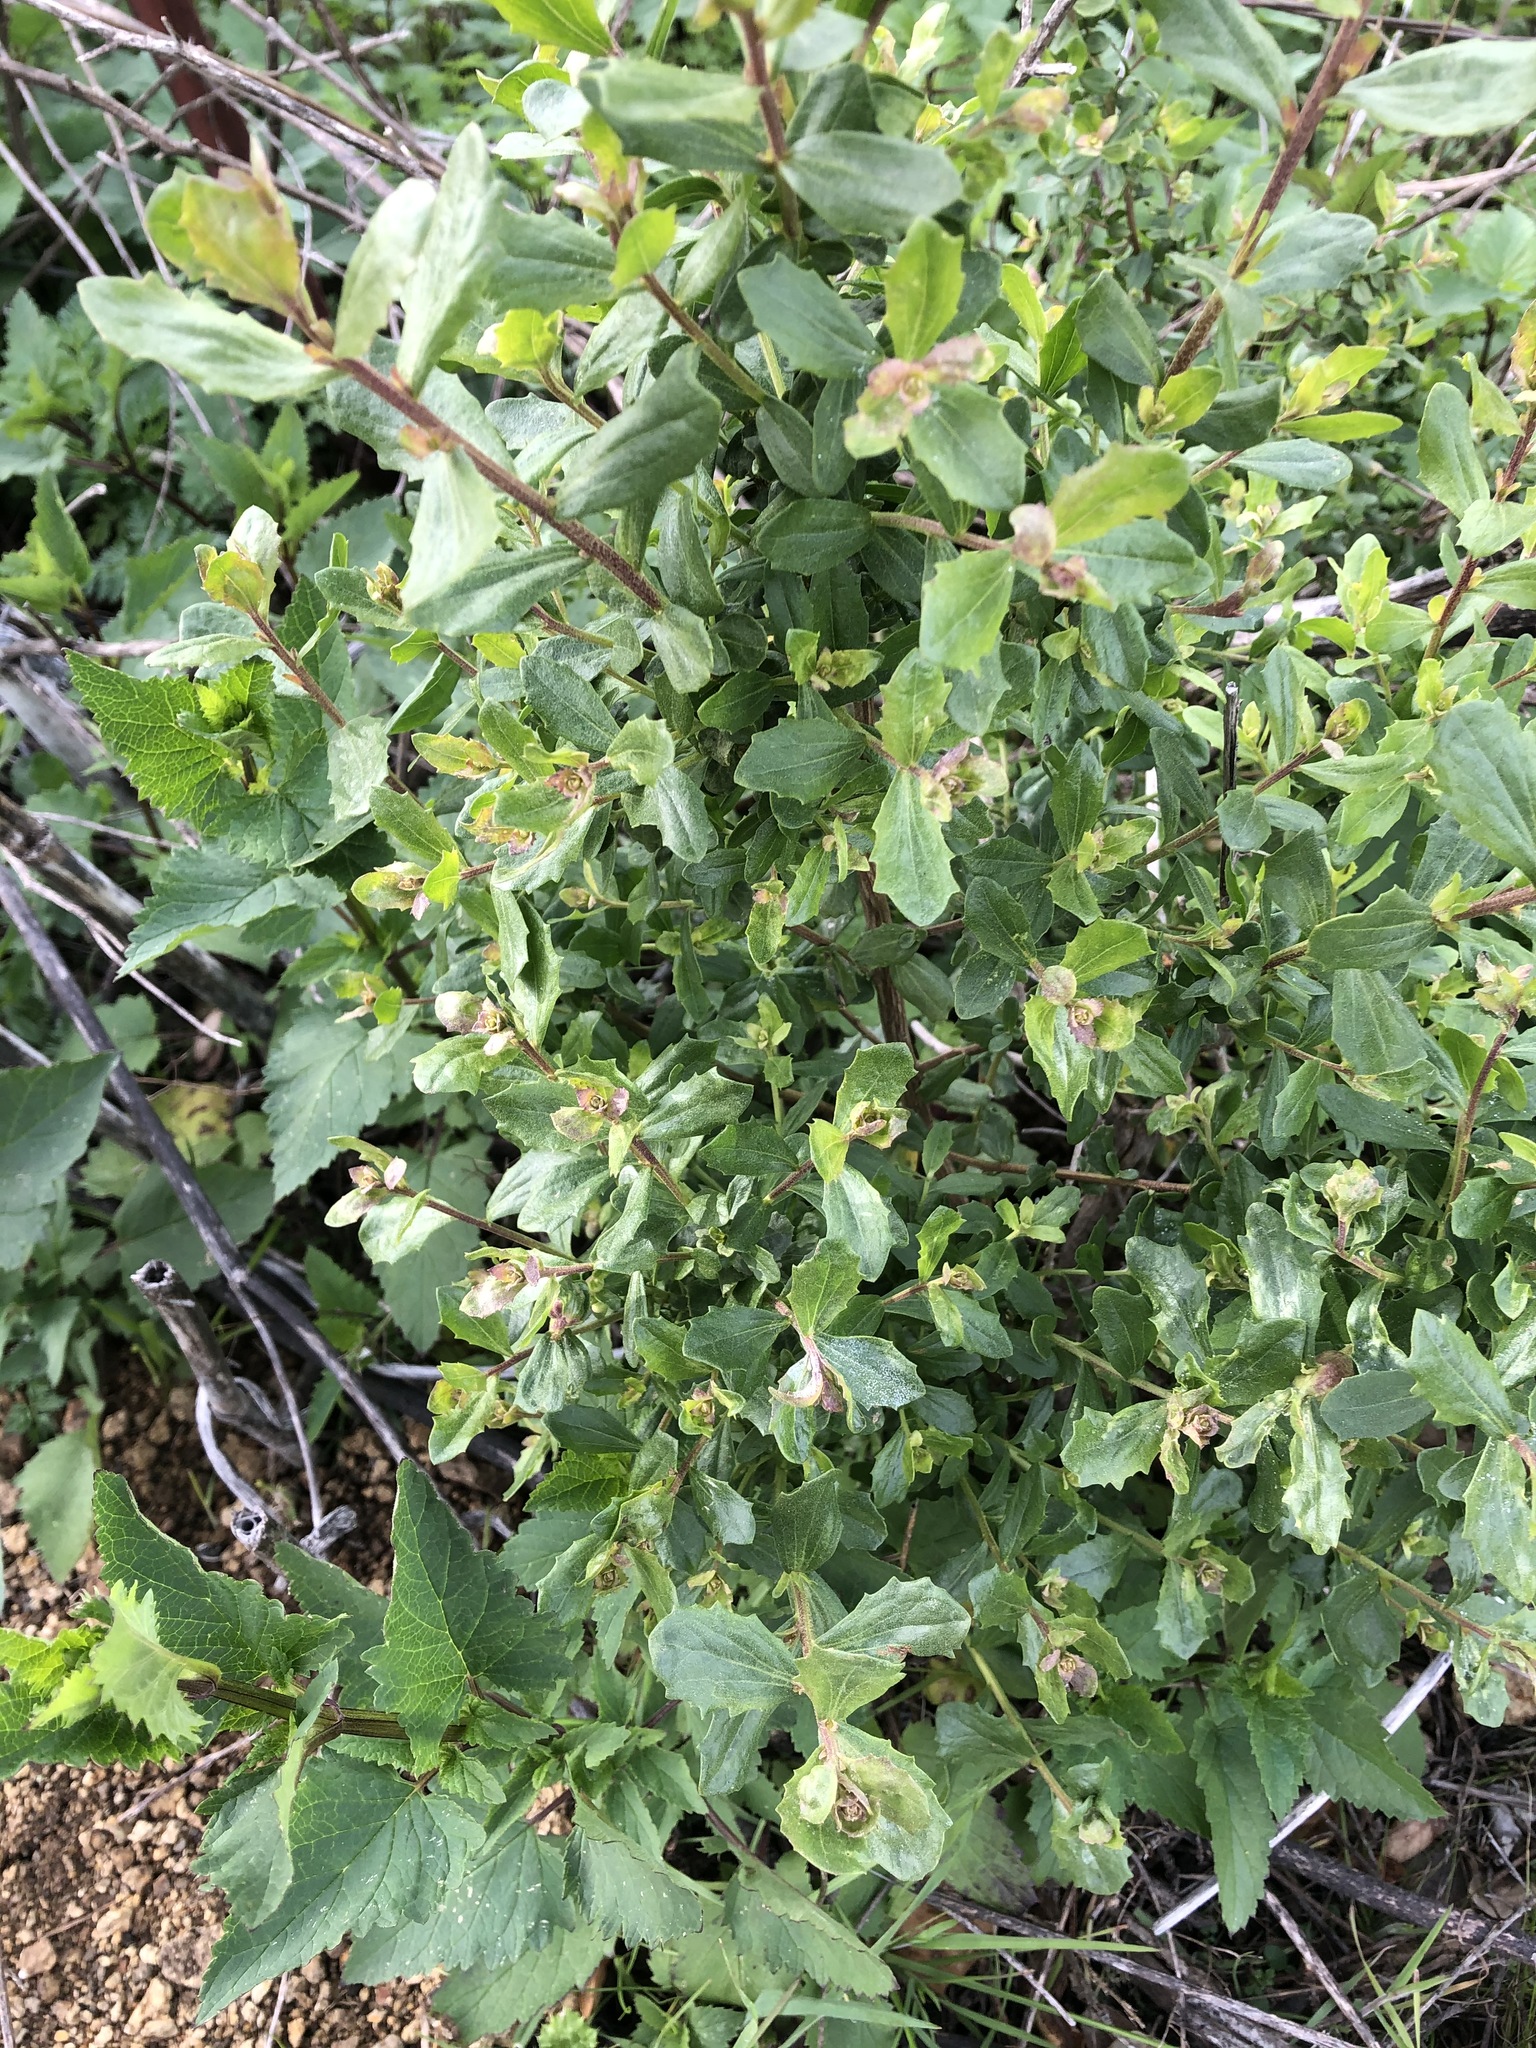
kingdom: Plantae
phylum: Tracheophyta
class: Magnoliopsida
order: Asterales
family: Asteraceae
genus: Baccharis
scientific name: Baccharis pilularis
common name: Coyotebrush
